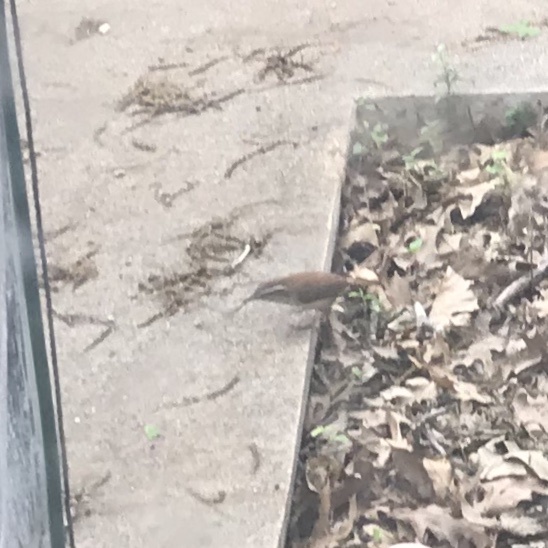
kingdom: Animalia
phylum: Chordata
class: Aves
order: Passeriformes
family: Troglodytidae
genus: Thryothorus
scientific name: Thryothorus ludovicianus
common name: Carolina wren
